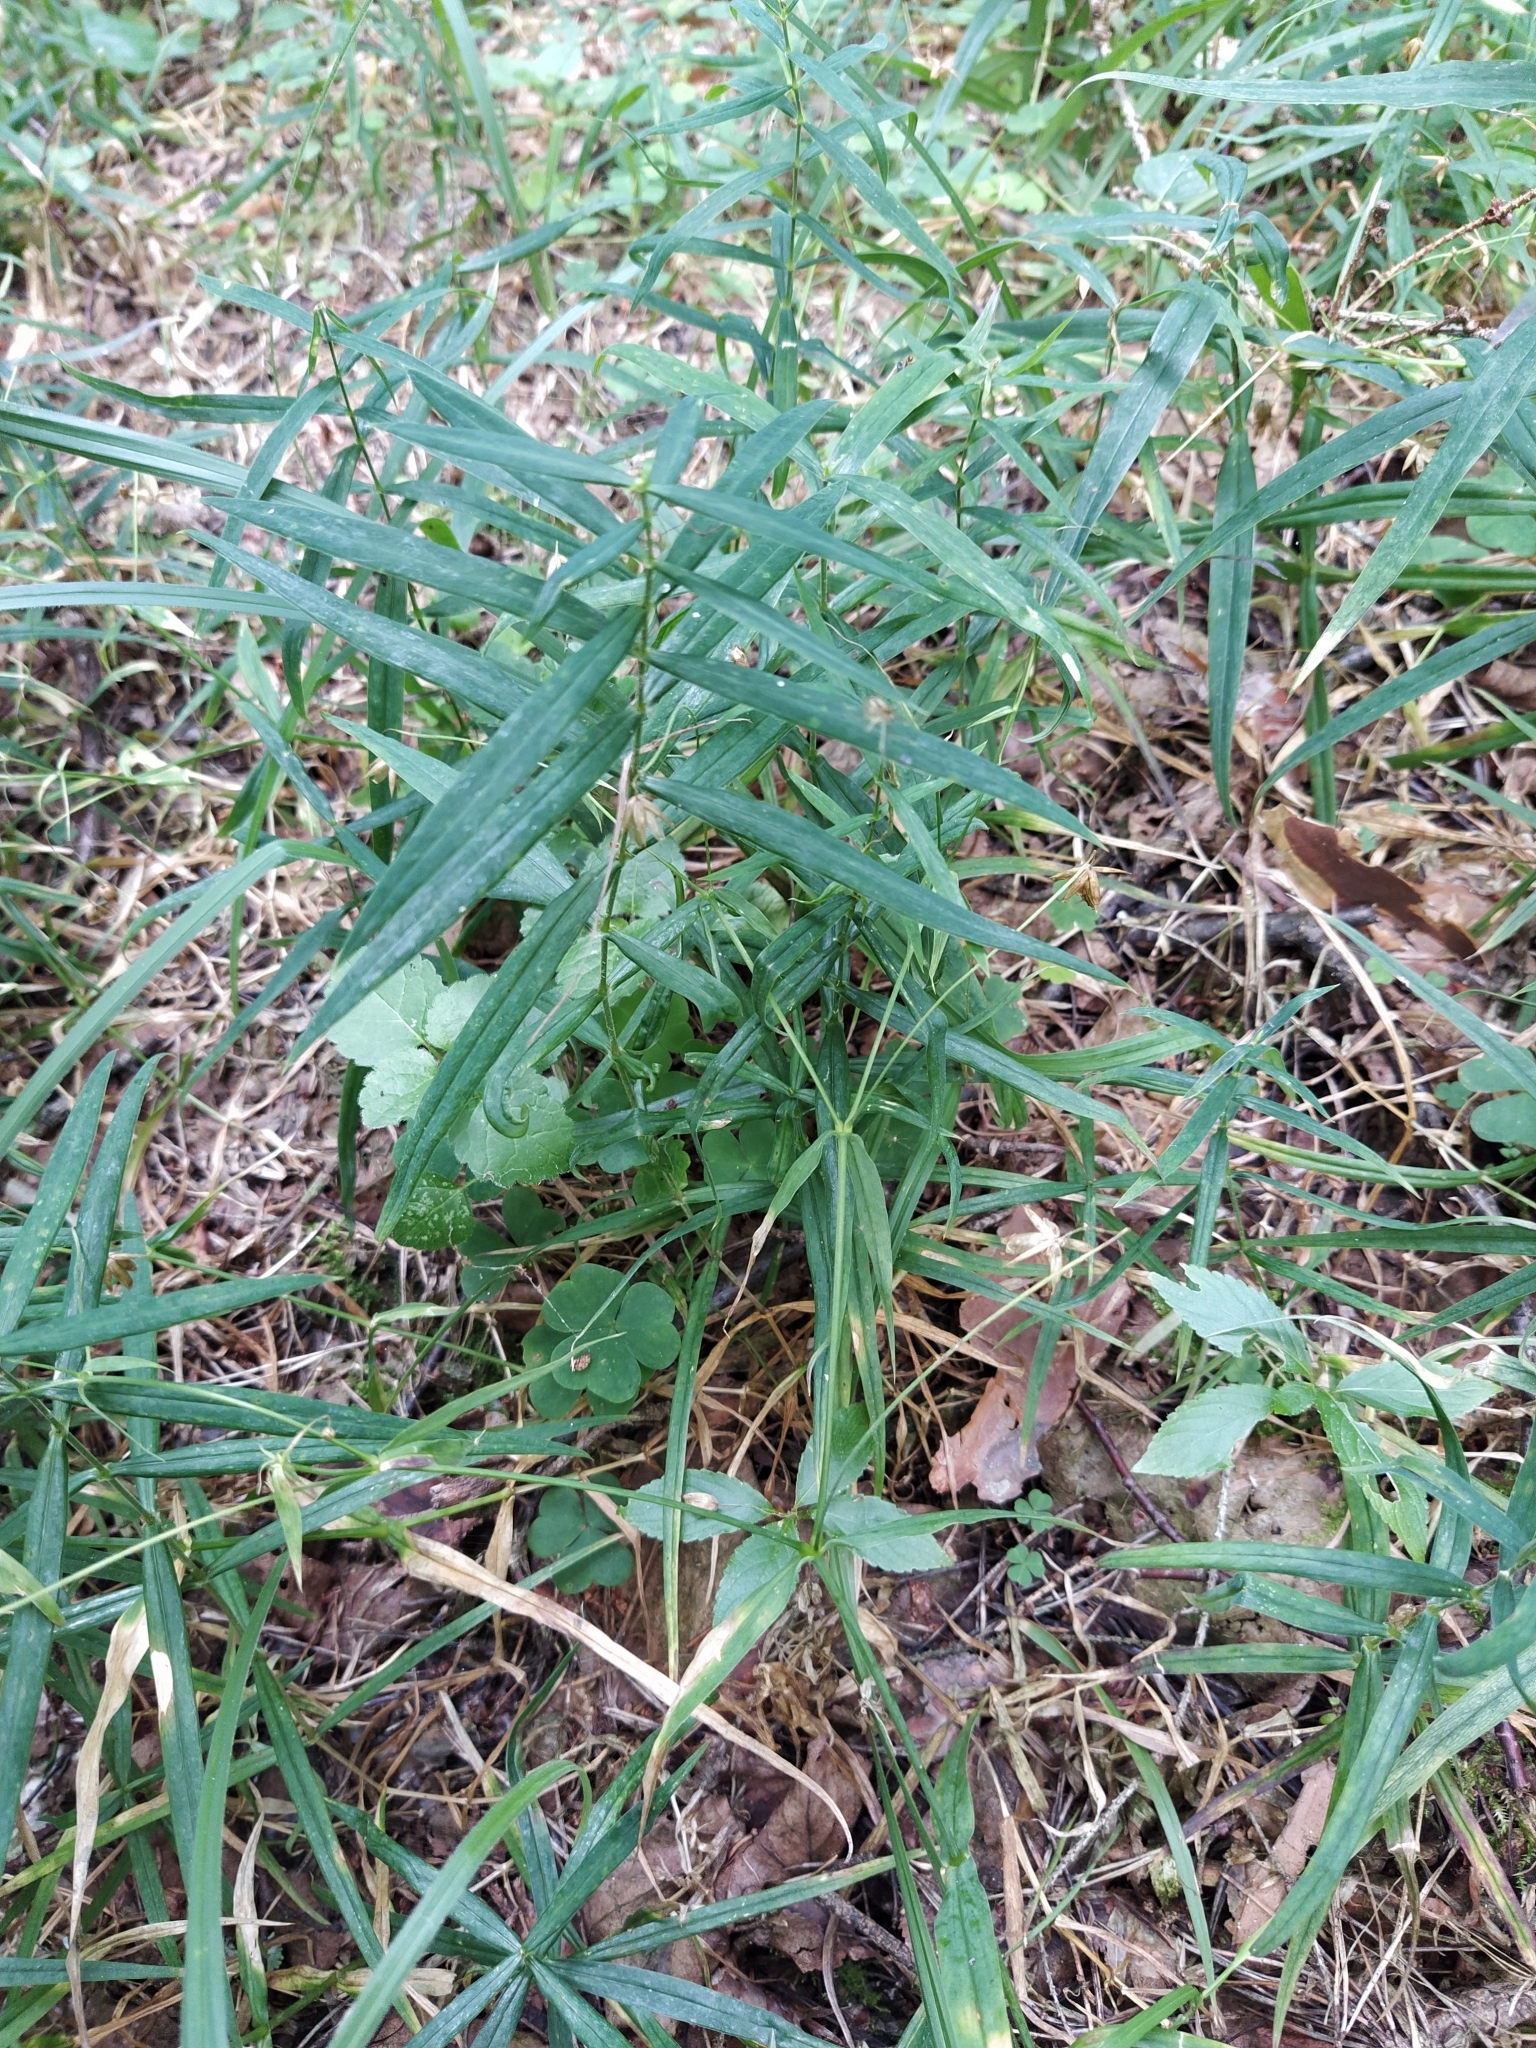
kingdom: Plantae
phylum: Tracheophyta
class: Magnoliopsida
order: Caryophyllales
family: Caryophyllaceae
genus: Rabelera
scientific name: Rabelera holostea
